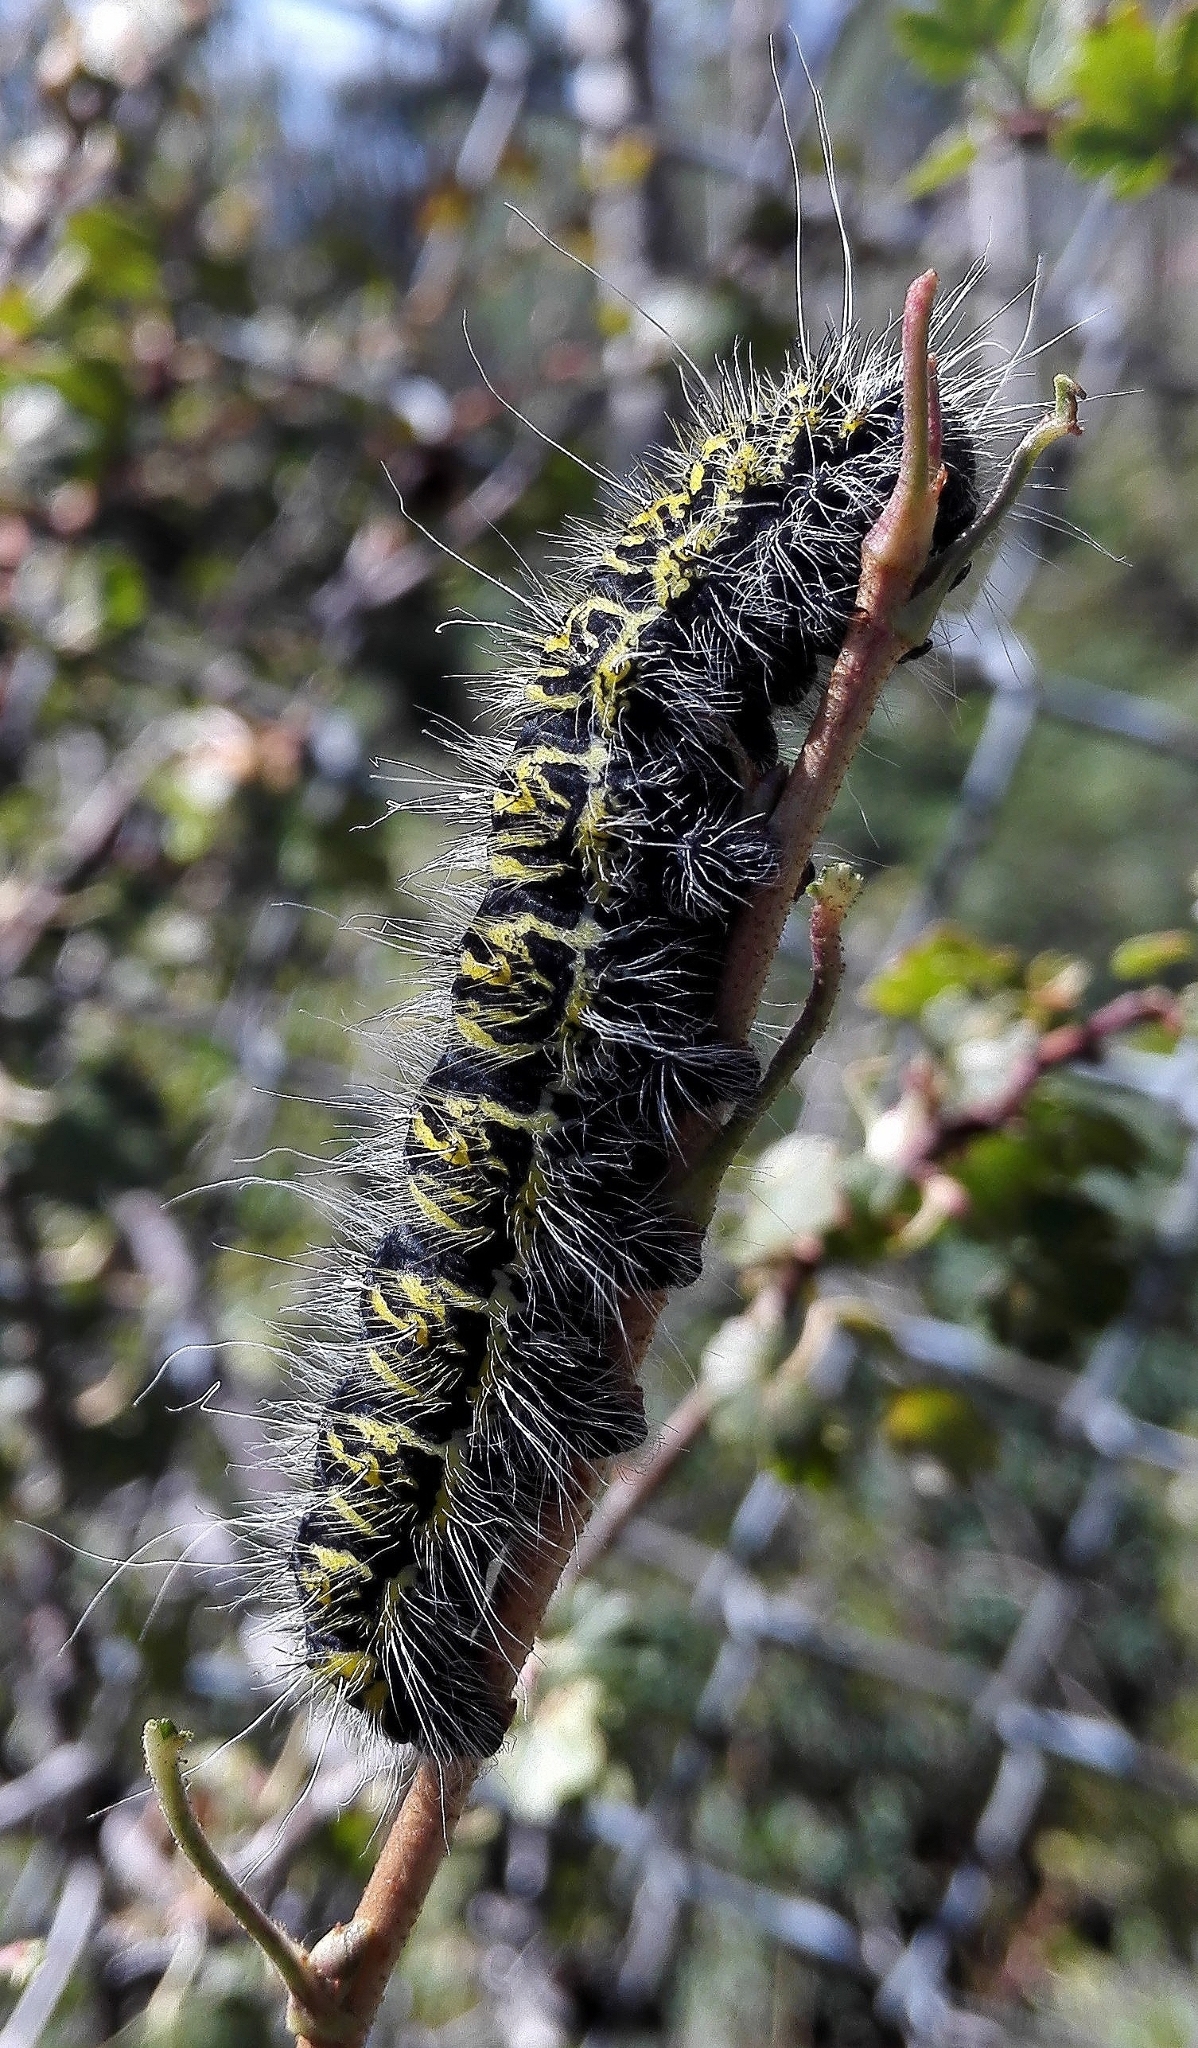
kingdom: Animalia
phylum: Arthropoda
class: Insecta
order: Lepidoptera
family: Saturniidae
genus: Agapema
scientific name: Agapema homogena
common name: Rocky mountain agapema
